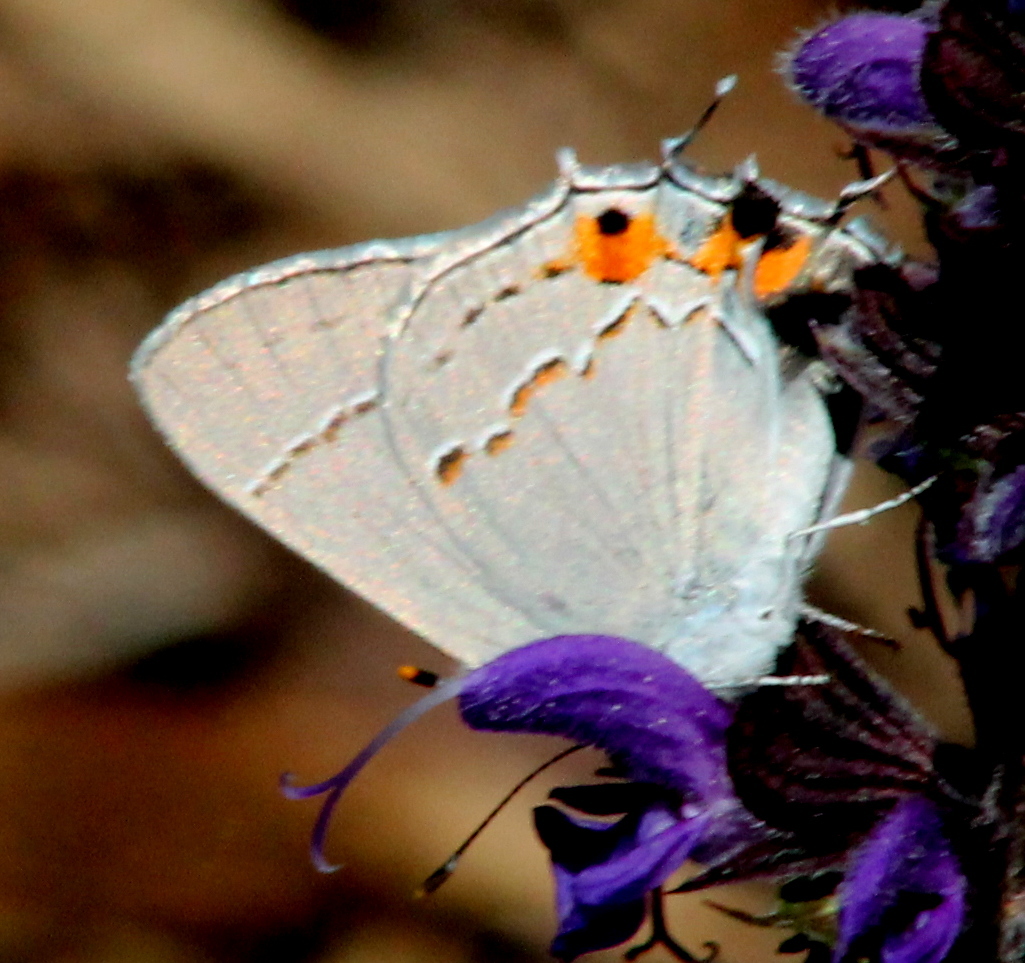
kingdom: Animalia
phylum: Arthropoda
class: Insecta
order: Lepidoptera
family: Lycaenidae
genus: Strymon
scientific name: Strymon melinus
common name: Gray hairstreak
